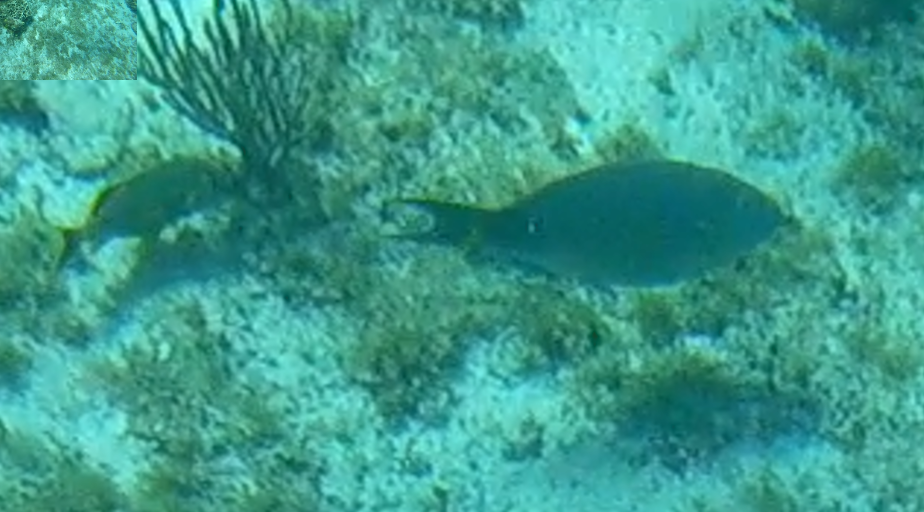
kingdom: Animalia
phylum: Chordata
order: Perciformes
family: Scaridae
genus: Sparisoma
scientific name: Sparisoma
